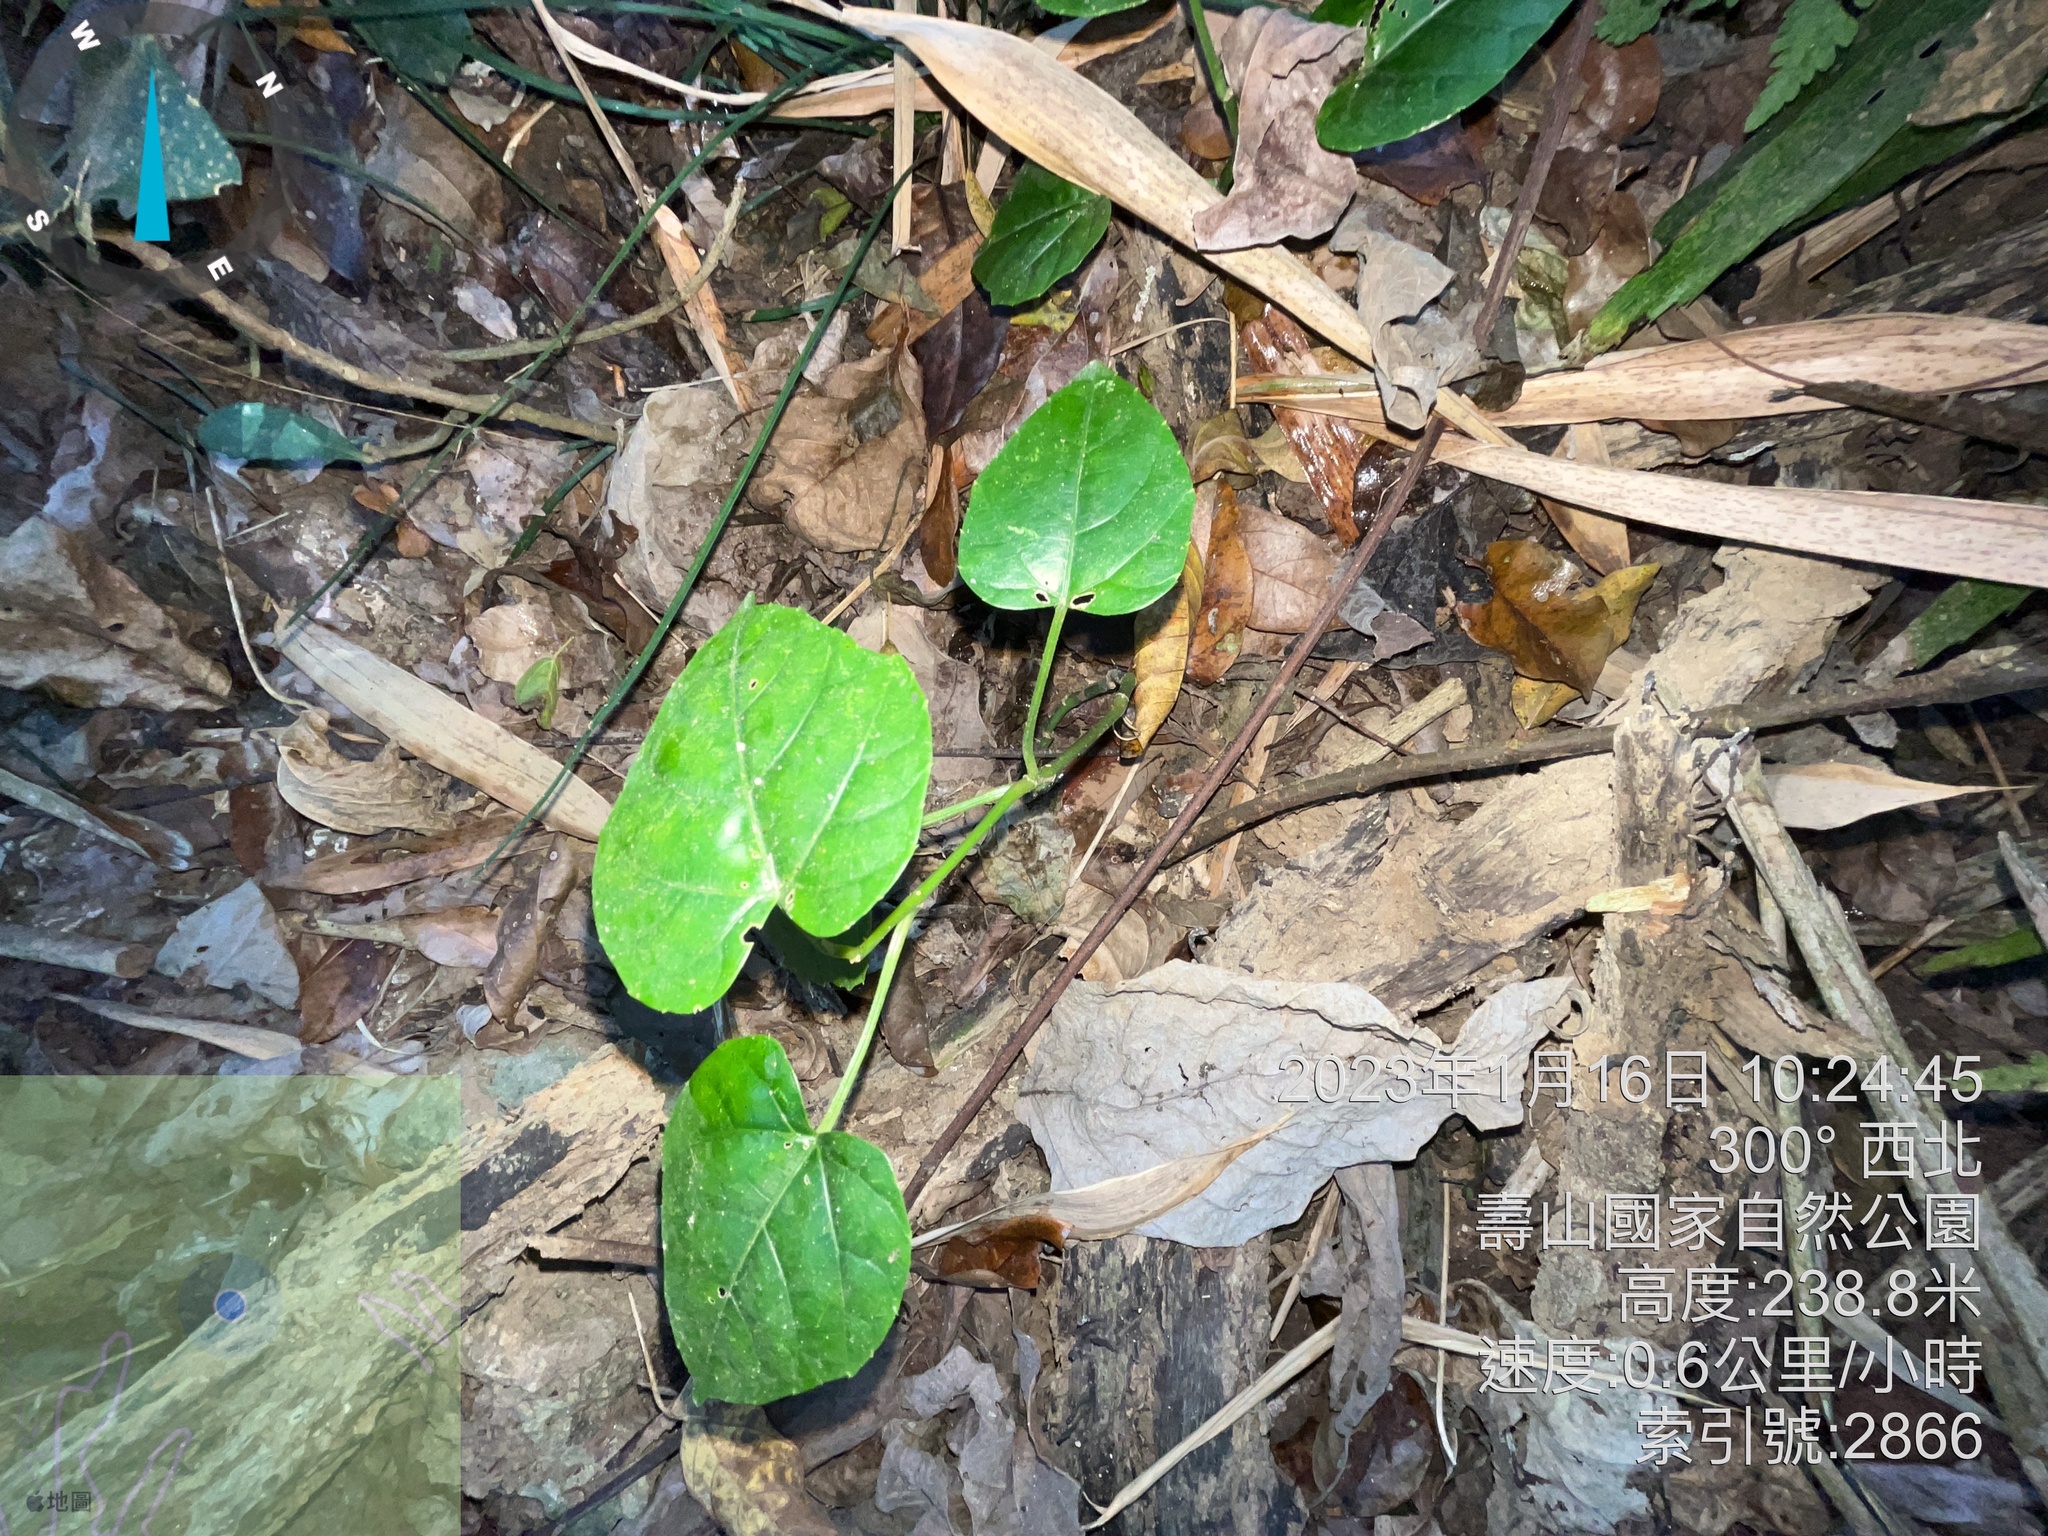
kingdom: Plantae
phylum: Tracheophyta
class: Magnoliopsida
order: Vitales
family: Vitaceae
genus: Cissus
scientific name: Cissus verticillata
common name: Princess vine
